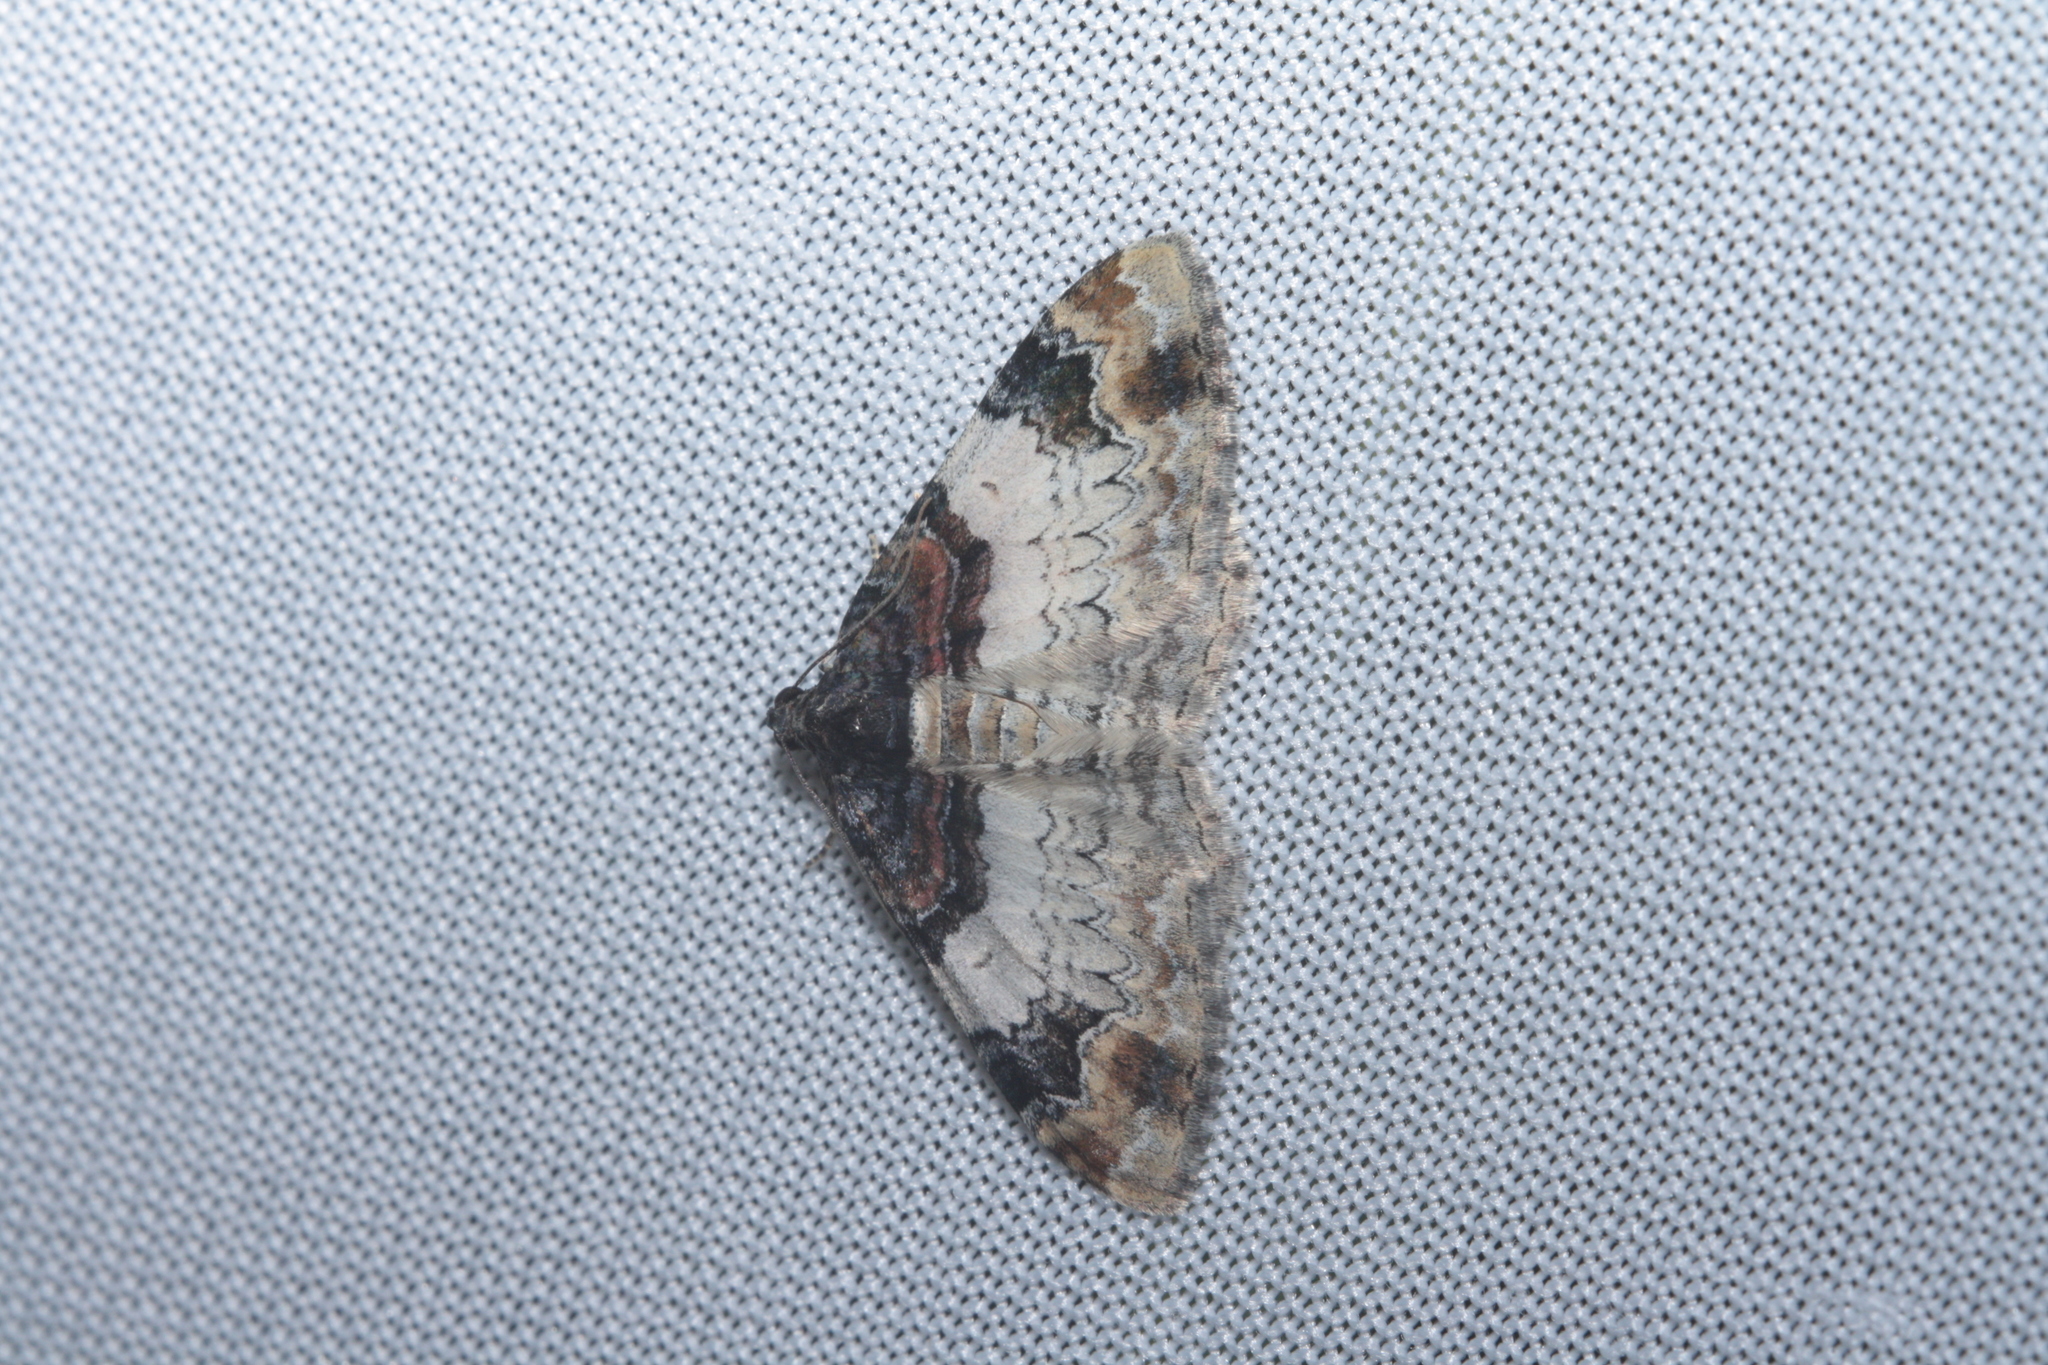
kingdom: Animalia
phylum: Arthropoda
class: Insecta
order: Lepidoptera
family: Geometridae
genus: Catarhoe
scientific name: Catarhoe cuculata
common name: Royal mantle
